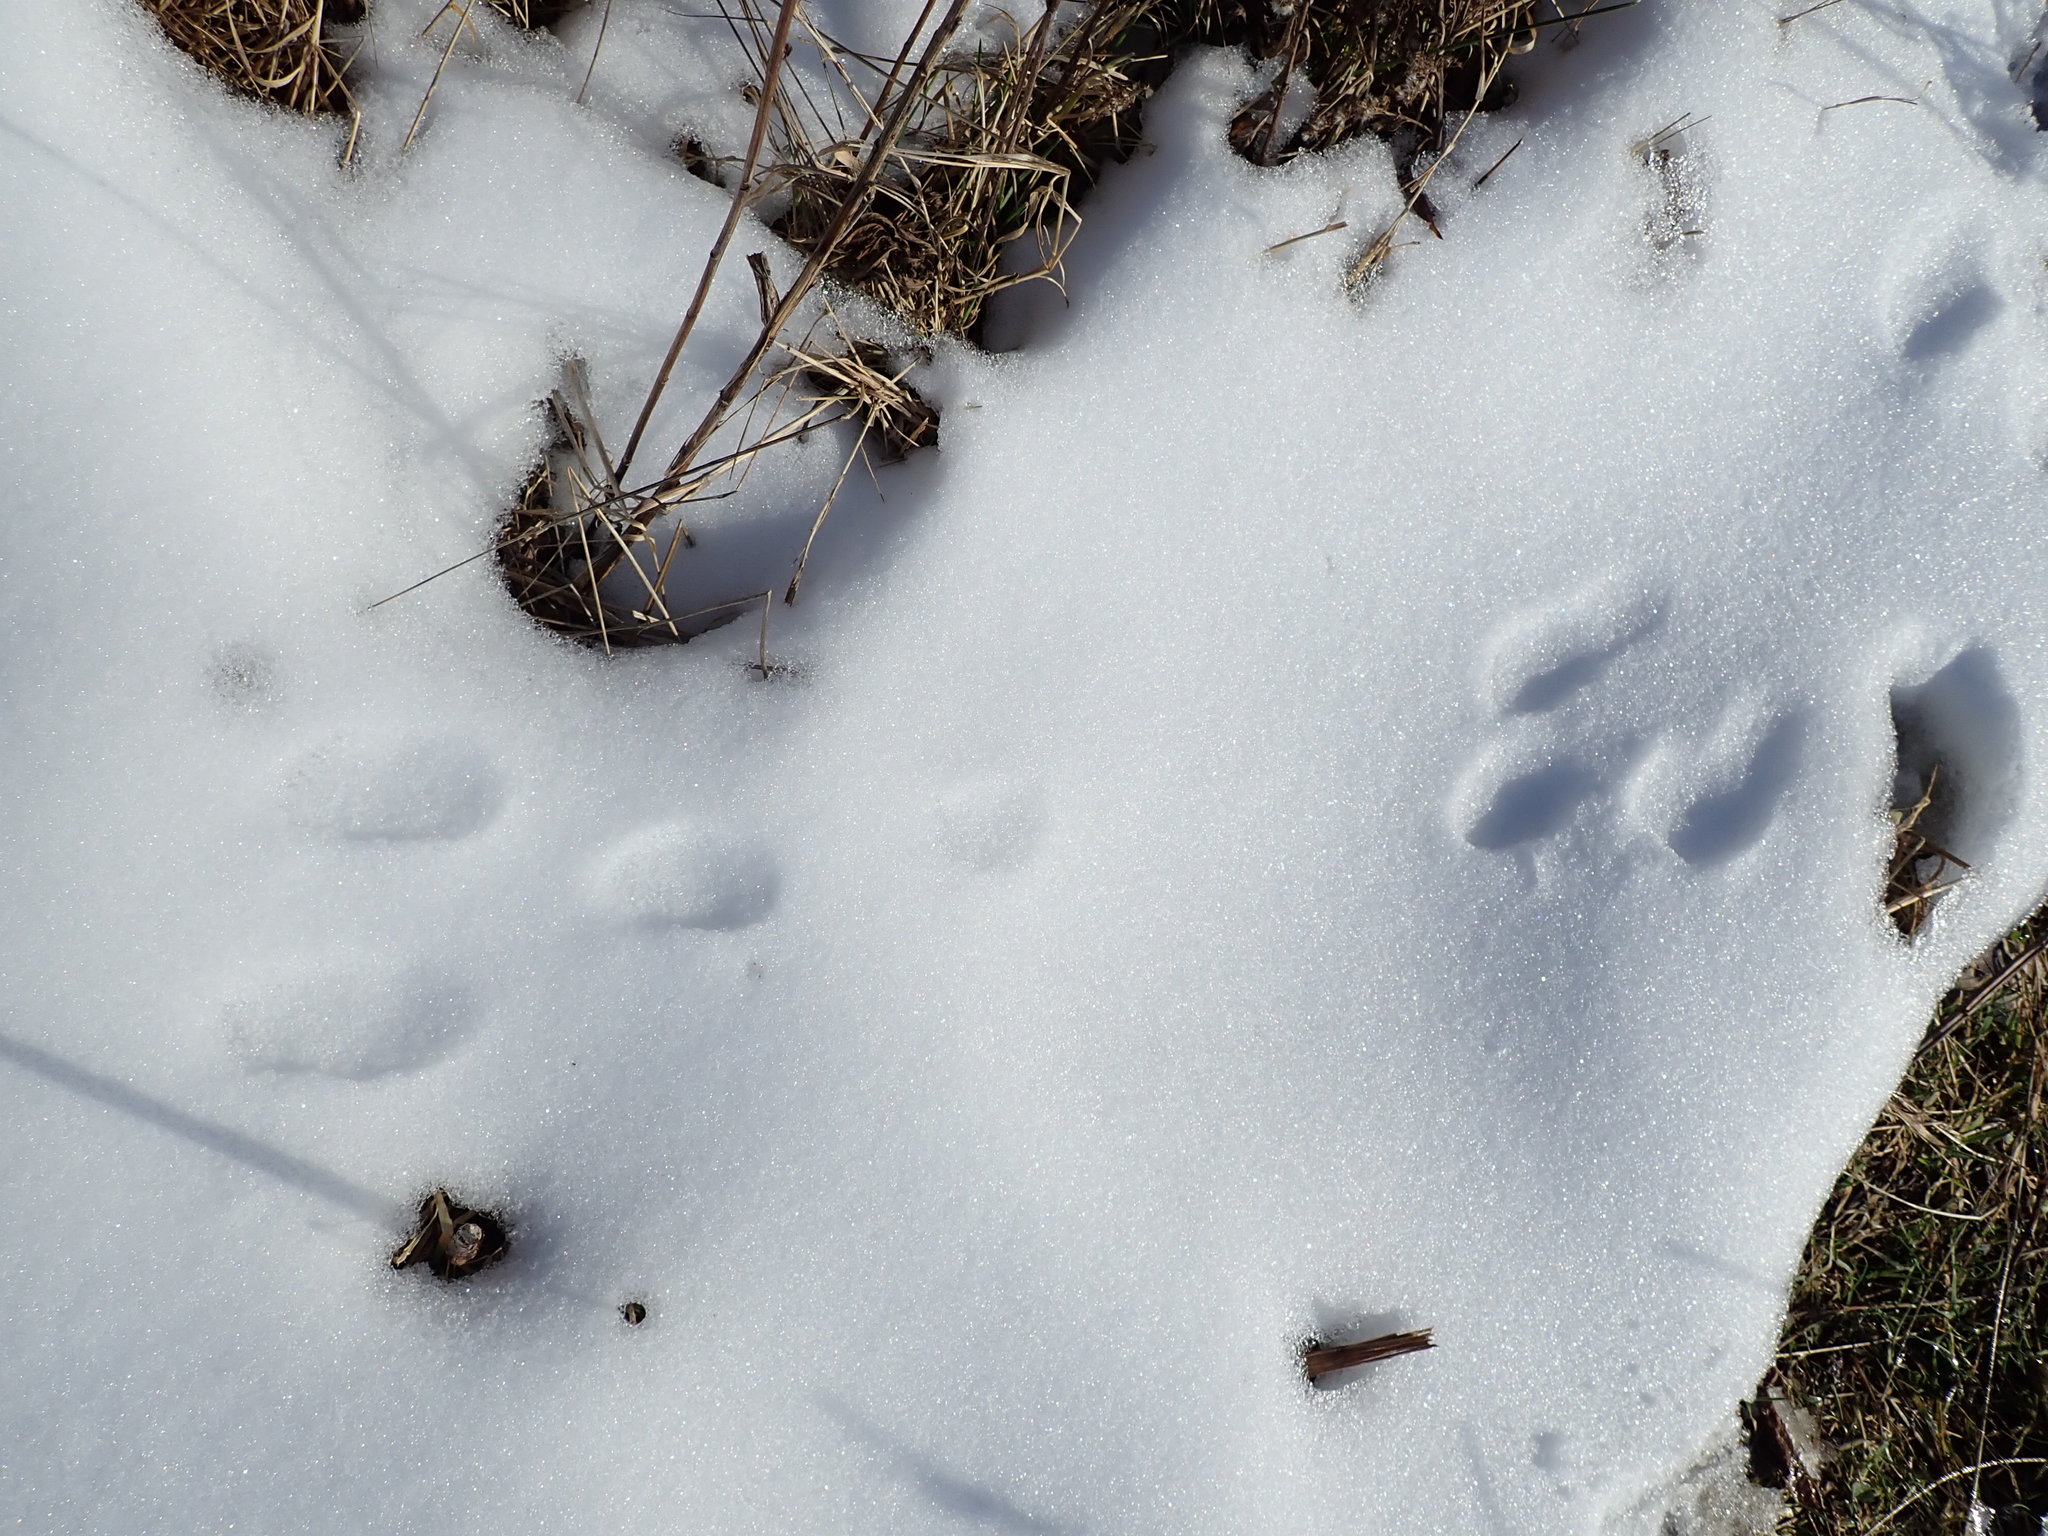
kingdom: Animalia
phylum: Chordata
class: Mammalia
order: Lagomorpha
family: Leporidae
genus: Sylvilagus
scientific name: Sylvilagus floridanus
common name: Eastern cottontail
